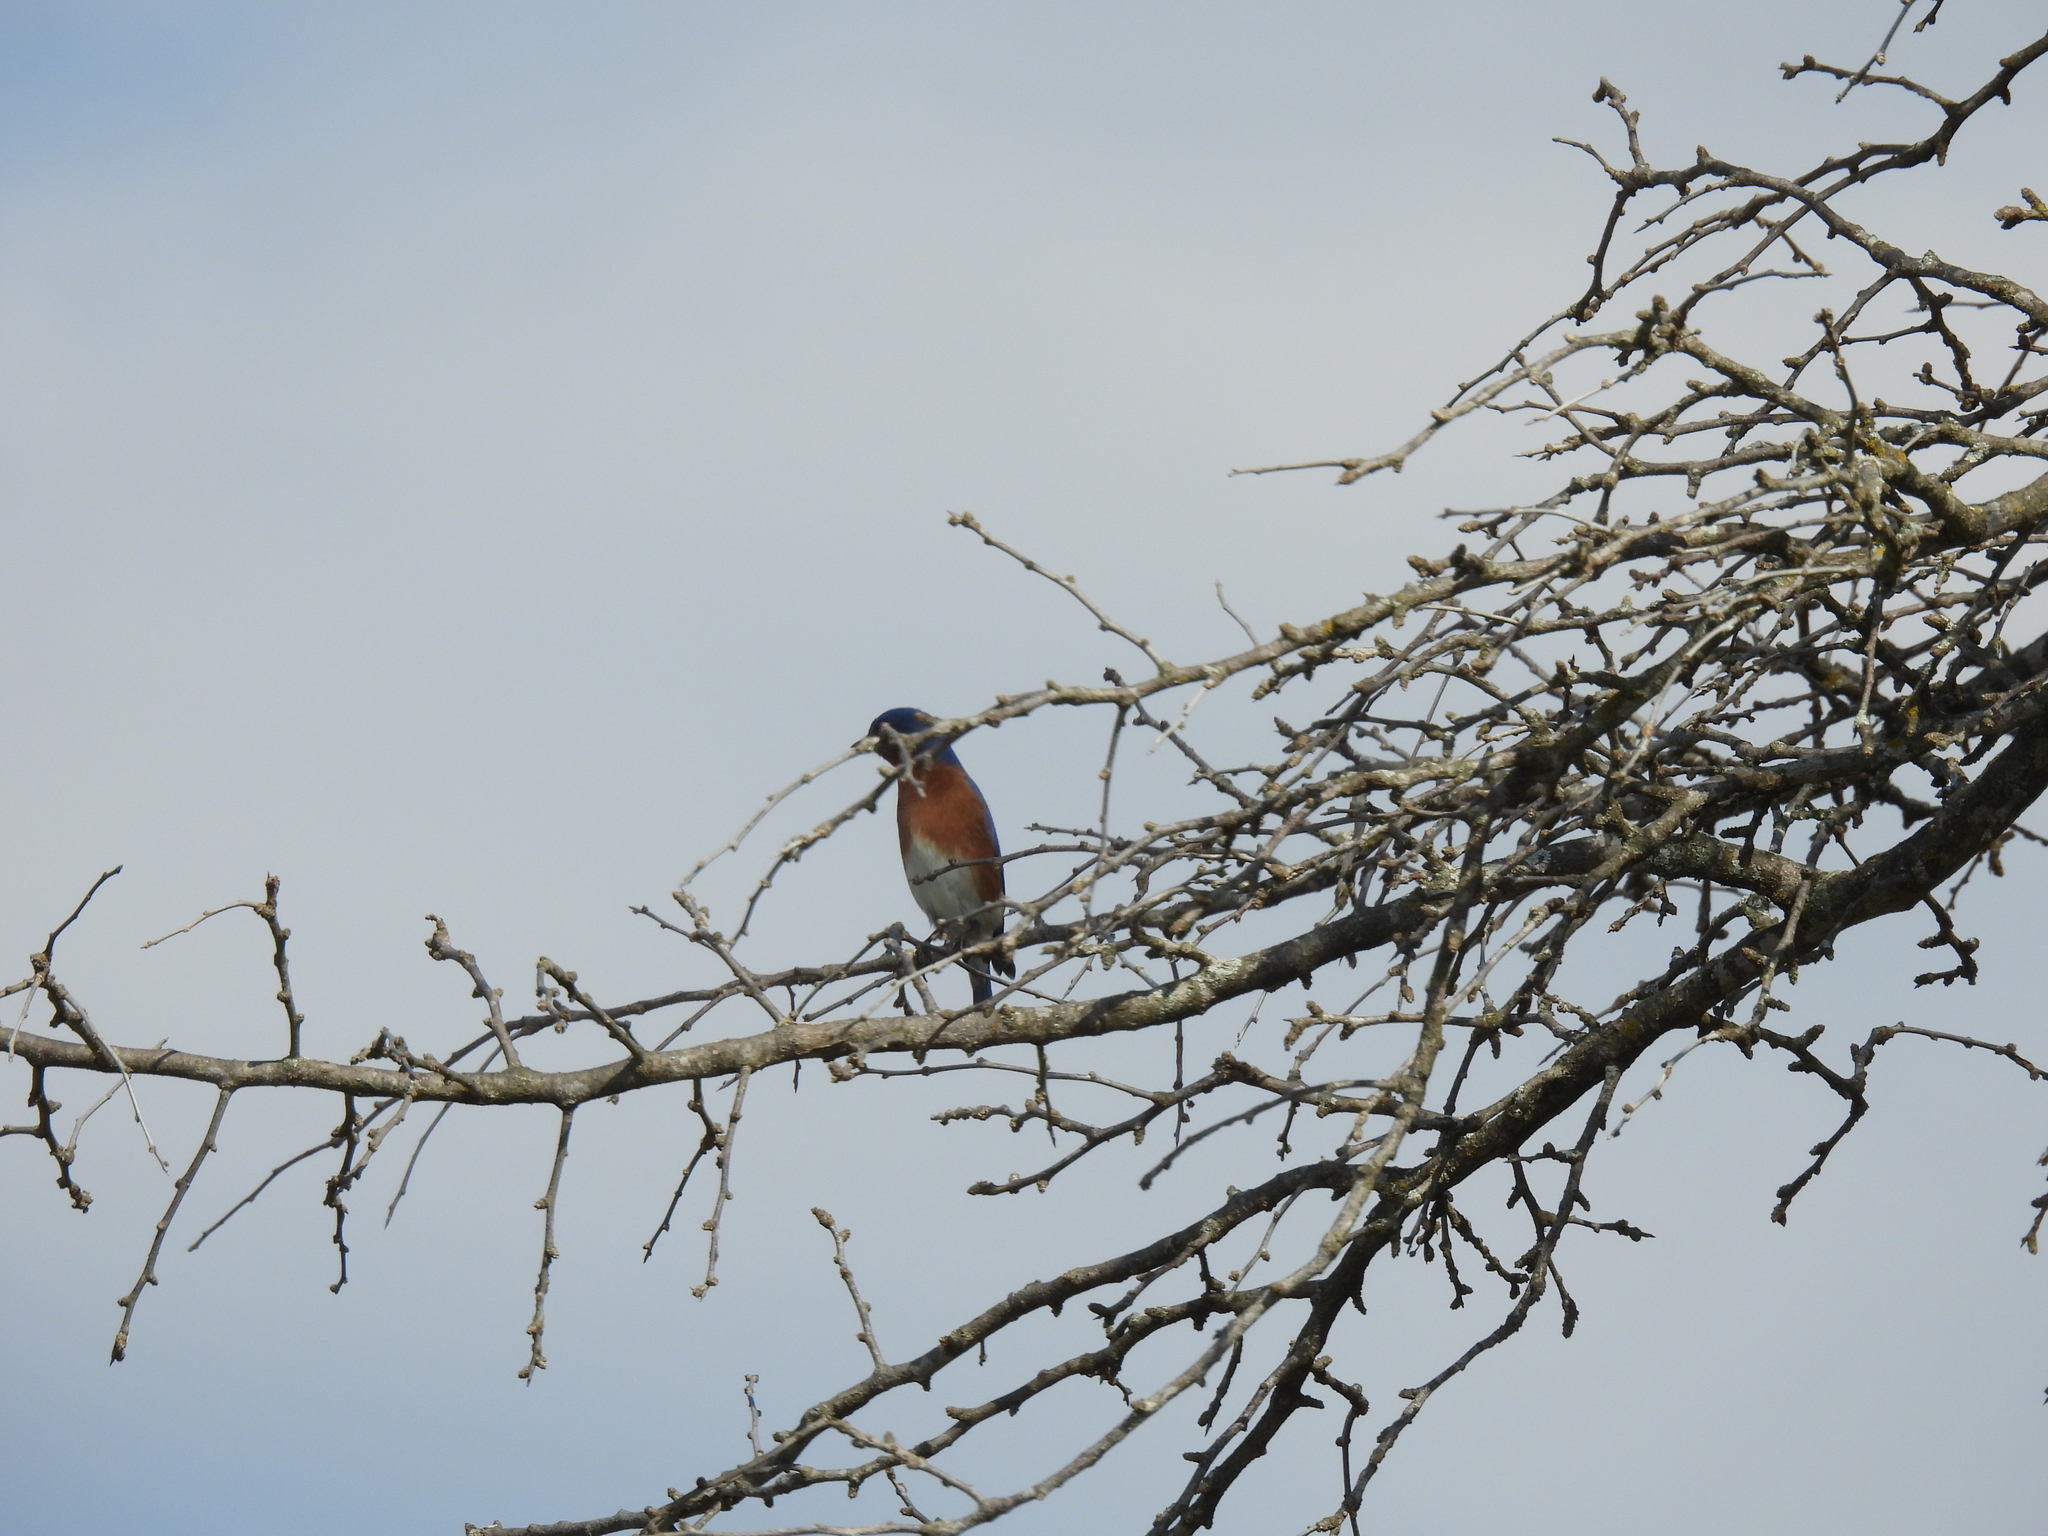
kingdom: Animalia
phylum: Chordata
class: Aves
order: Passeriformes
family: Turdidae
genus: Sialia
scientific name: Sialia sialis
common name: Eastern bluebird
